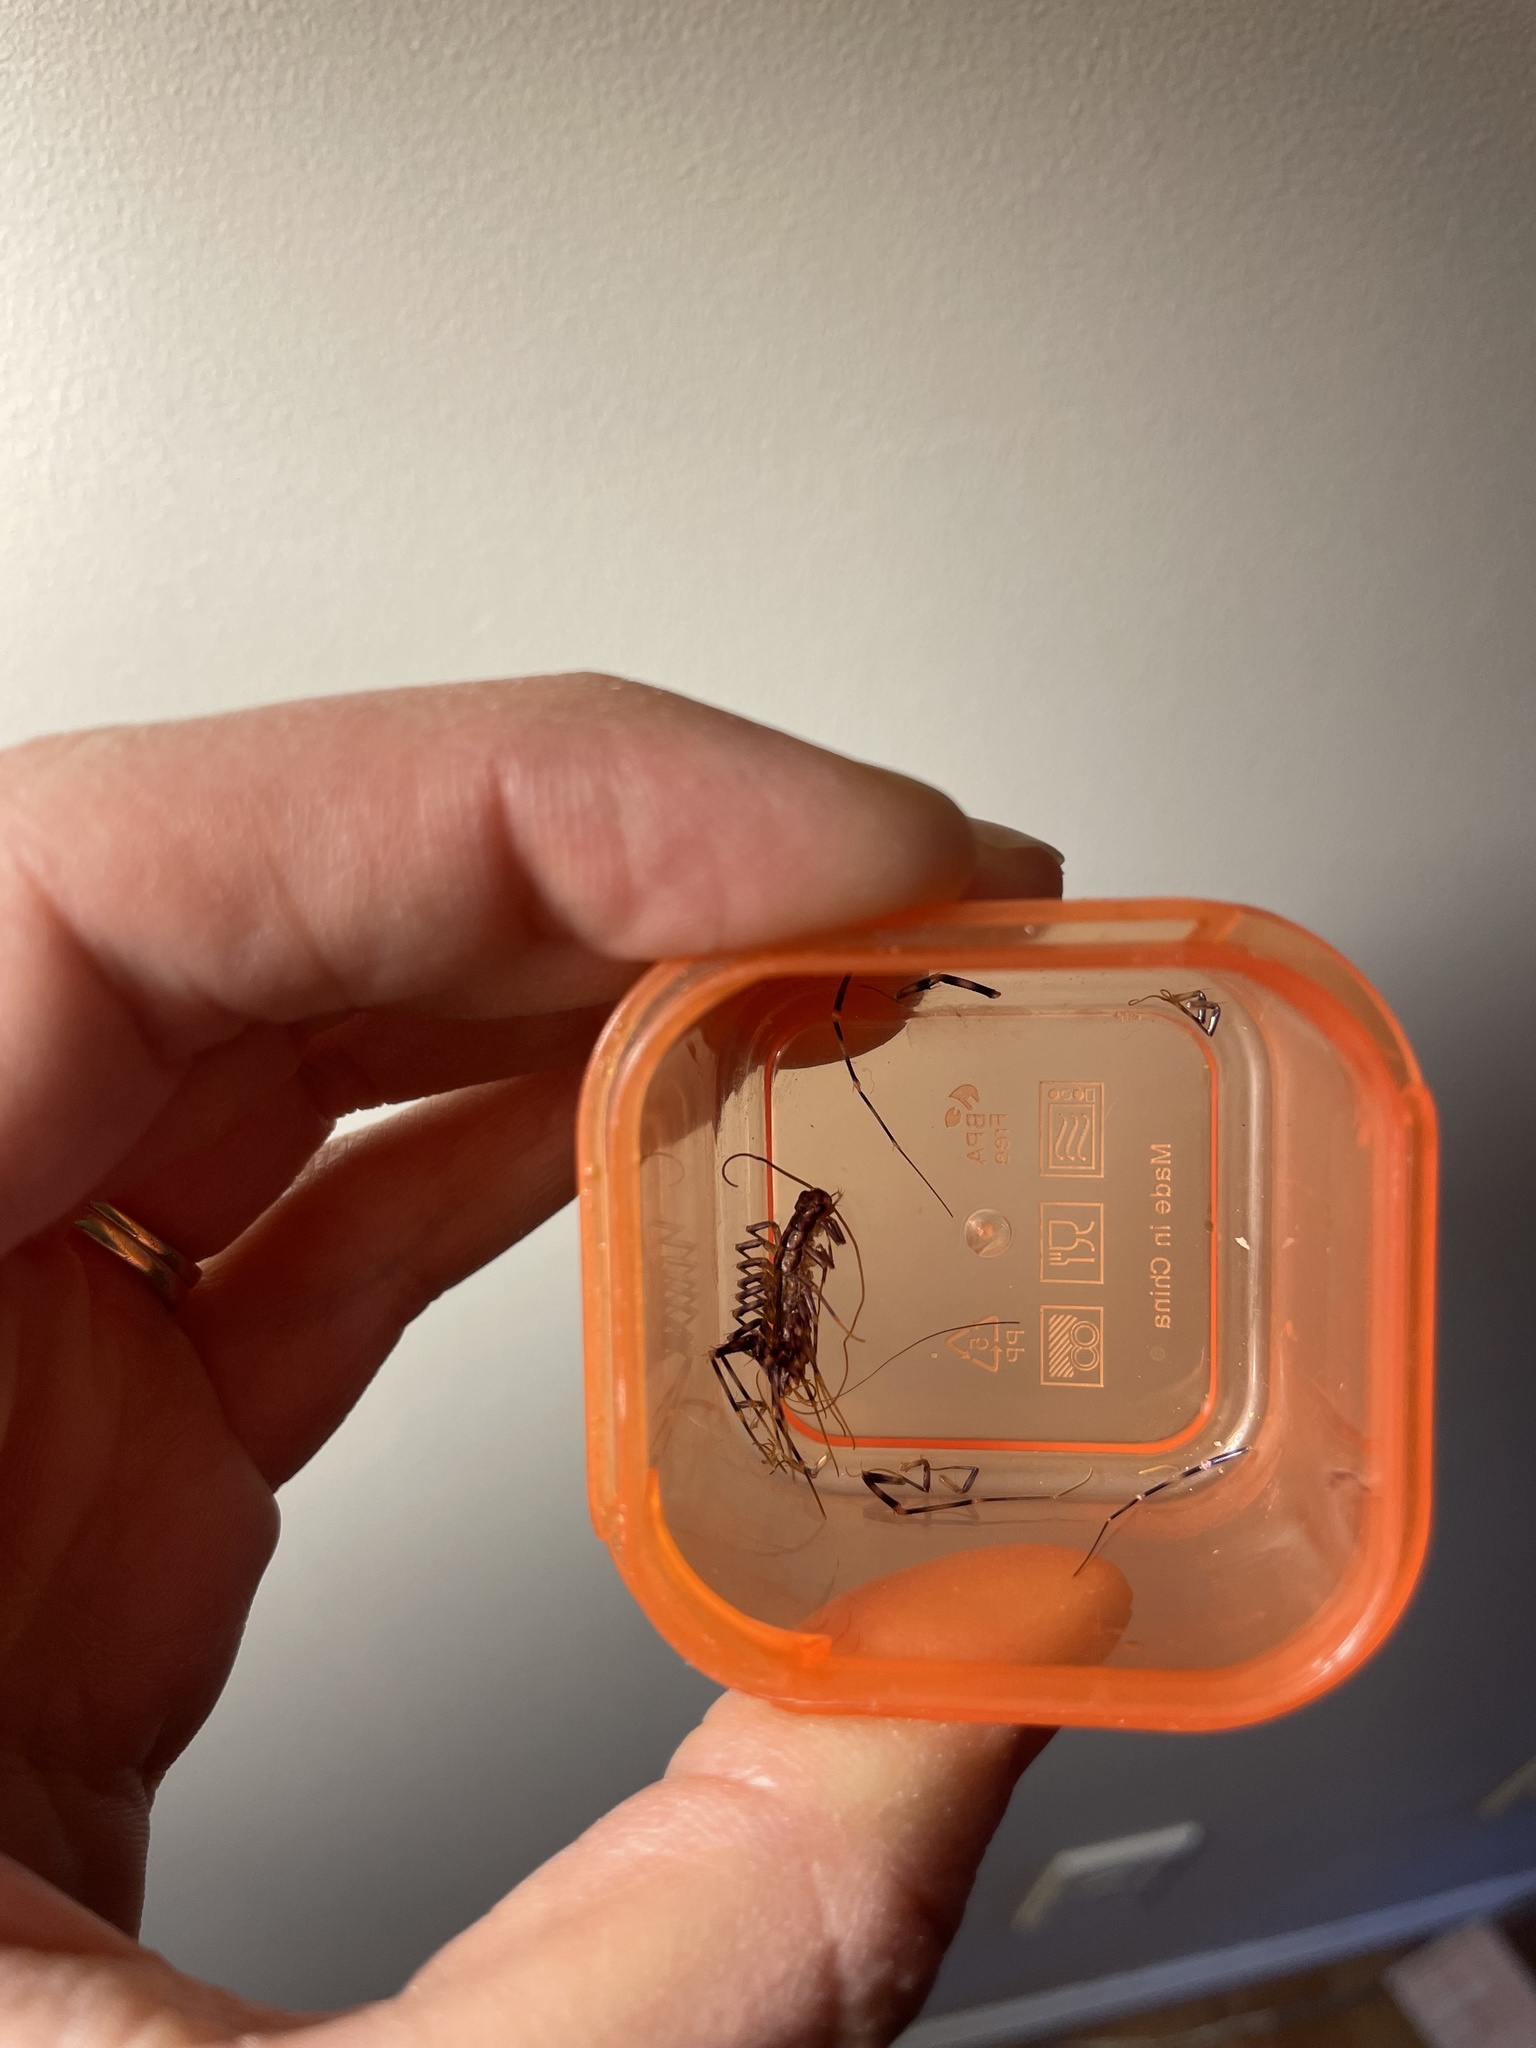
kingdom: Animalia
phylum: Arthropoda
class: Chilopoda
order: Scutigeromorpha
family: Scutigeridae
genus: Scutigera
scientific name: Scutigera coleoptrata
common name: House centipede
